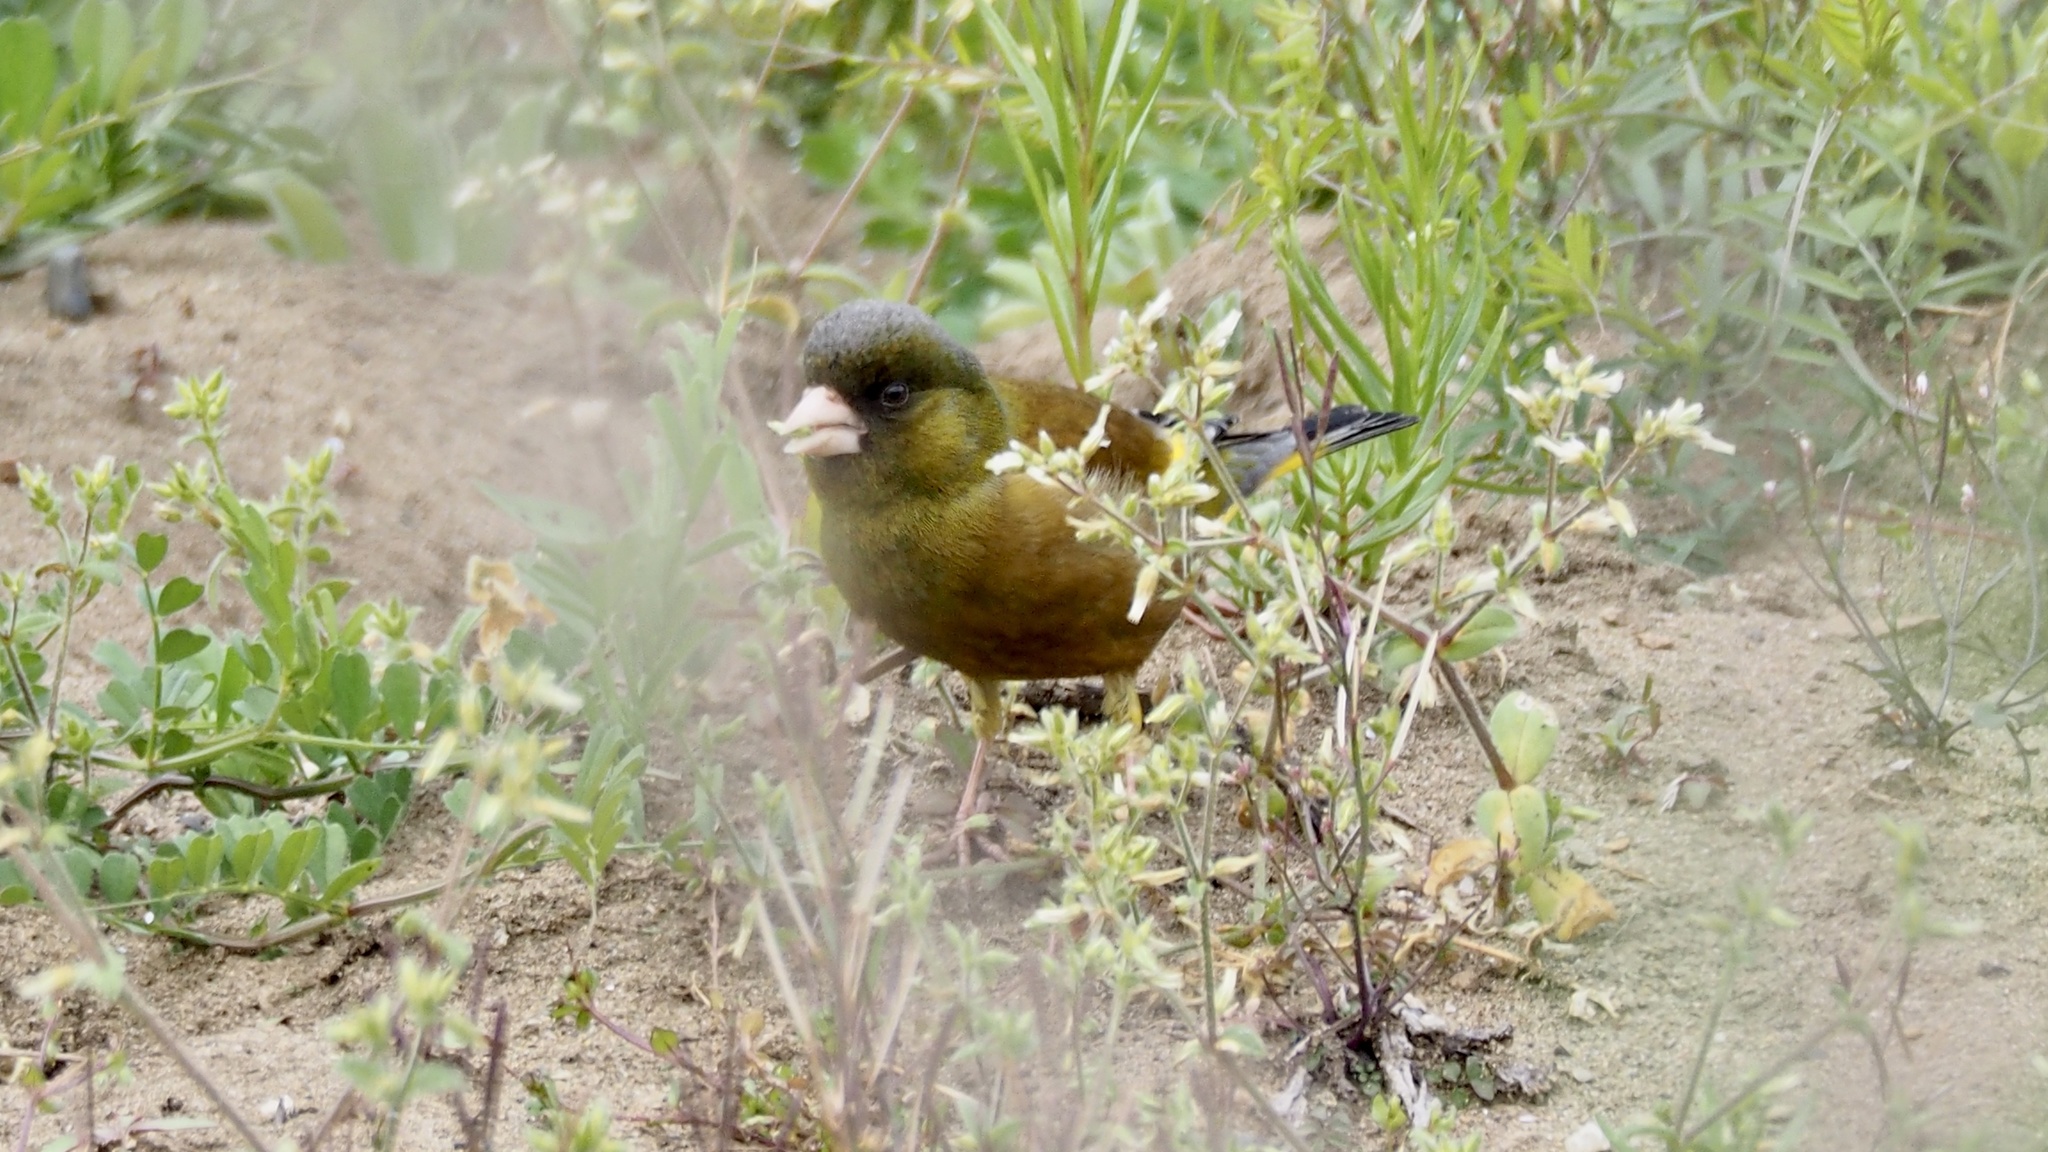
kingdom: Plantae
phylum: Tracheophyta
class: Liliopsida
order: Poales
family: Poaceae
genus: Chloris
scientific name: Chloris sinica
